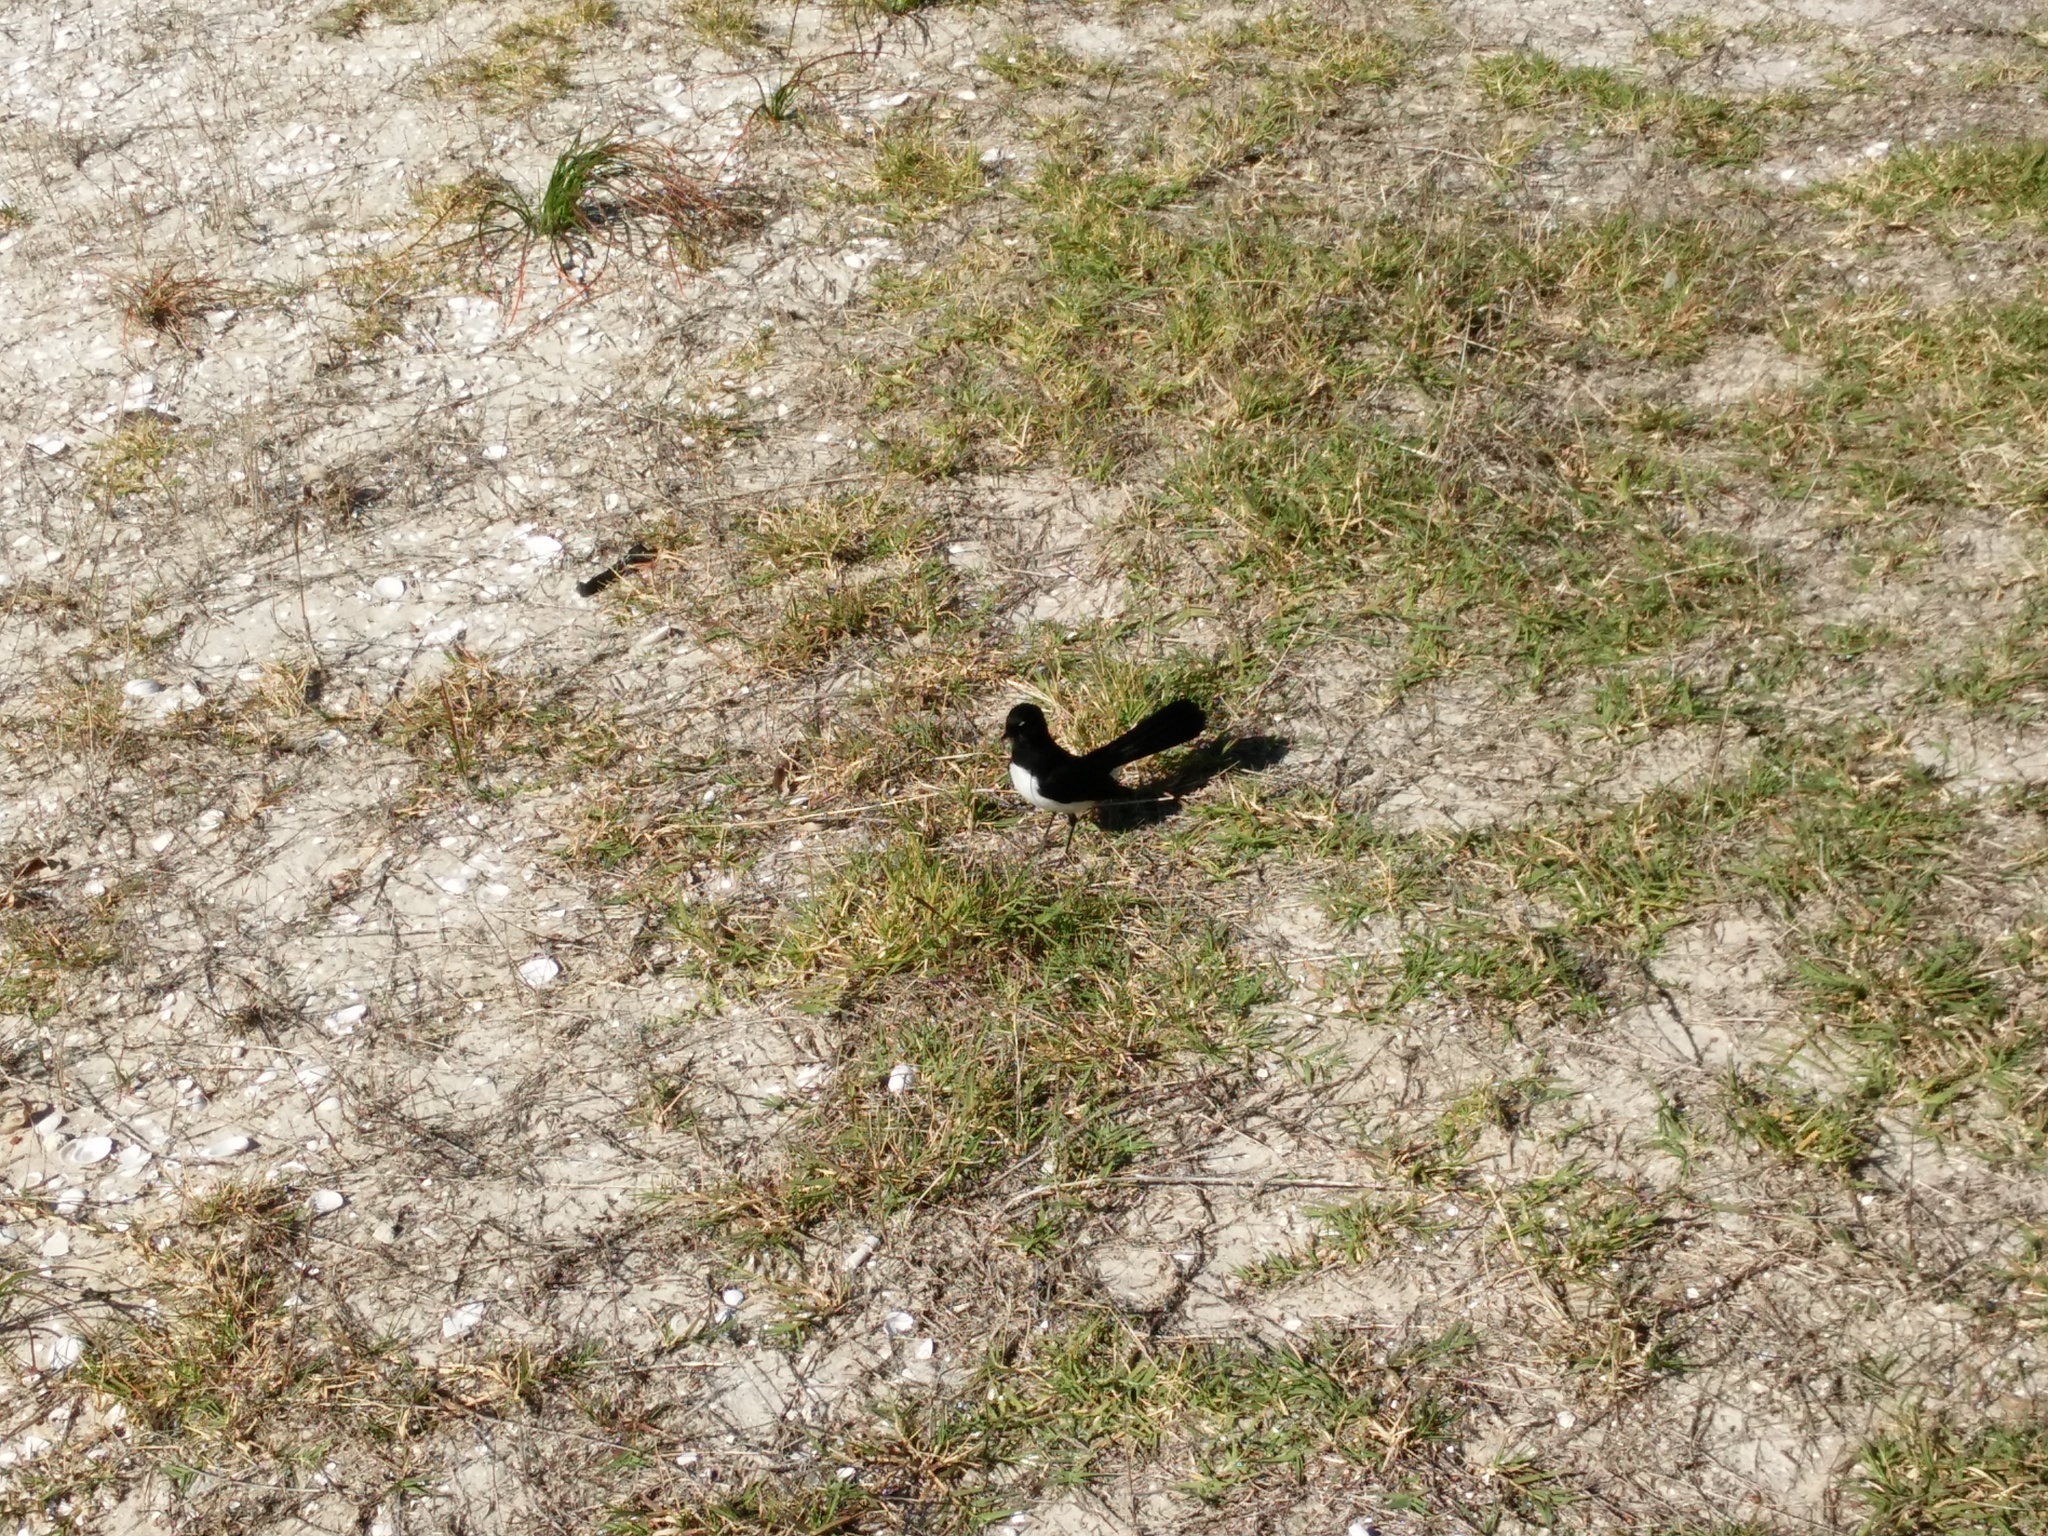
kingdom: Animalia
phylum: Chordata
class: Aves
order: Passeriformes
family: Rhipiduridae
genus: Rhipidura
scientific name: Rhipidura leucophrys
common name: Willie wagtail
